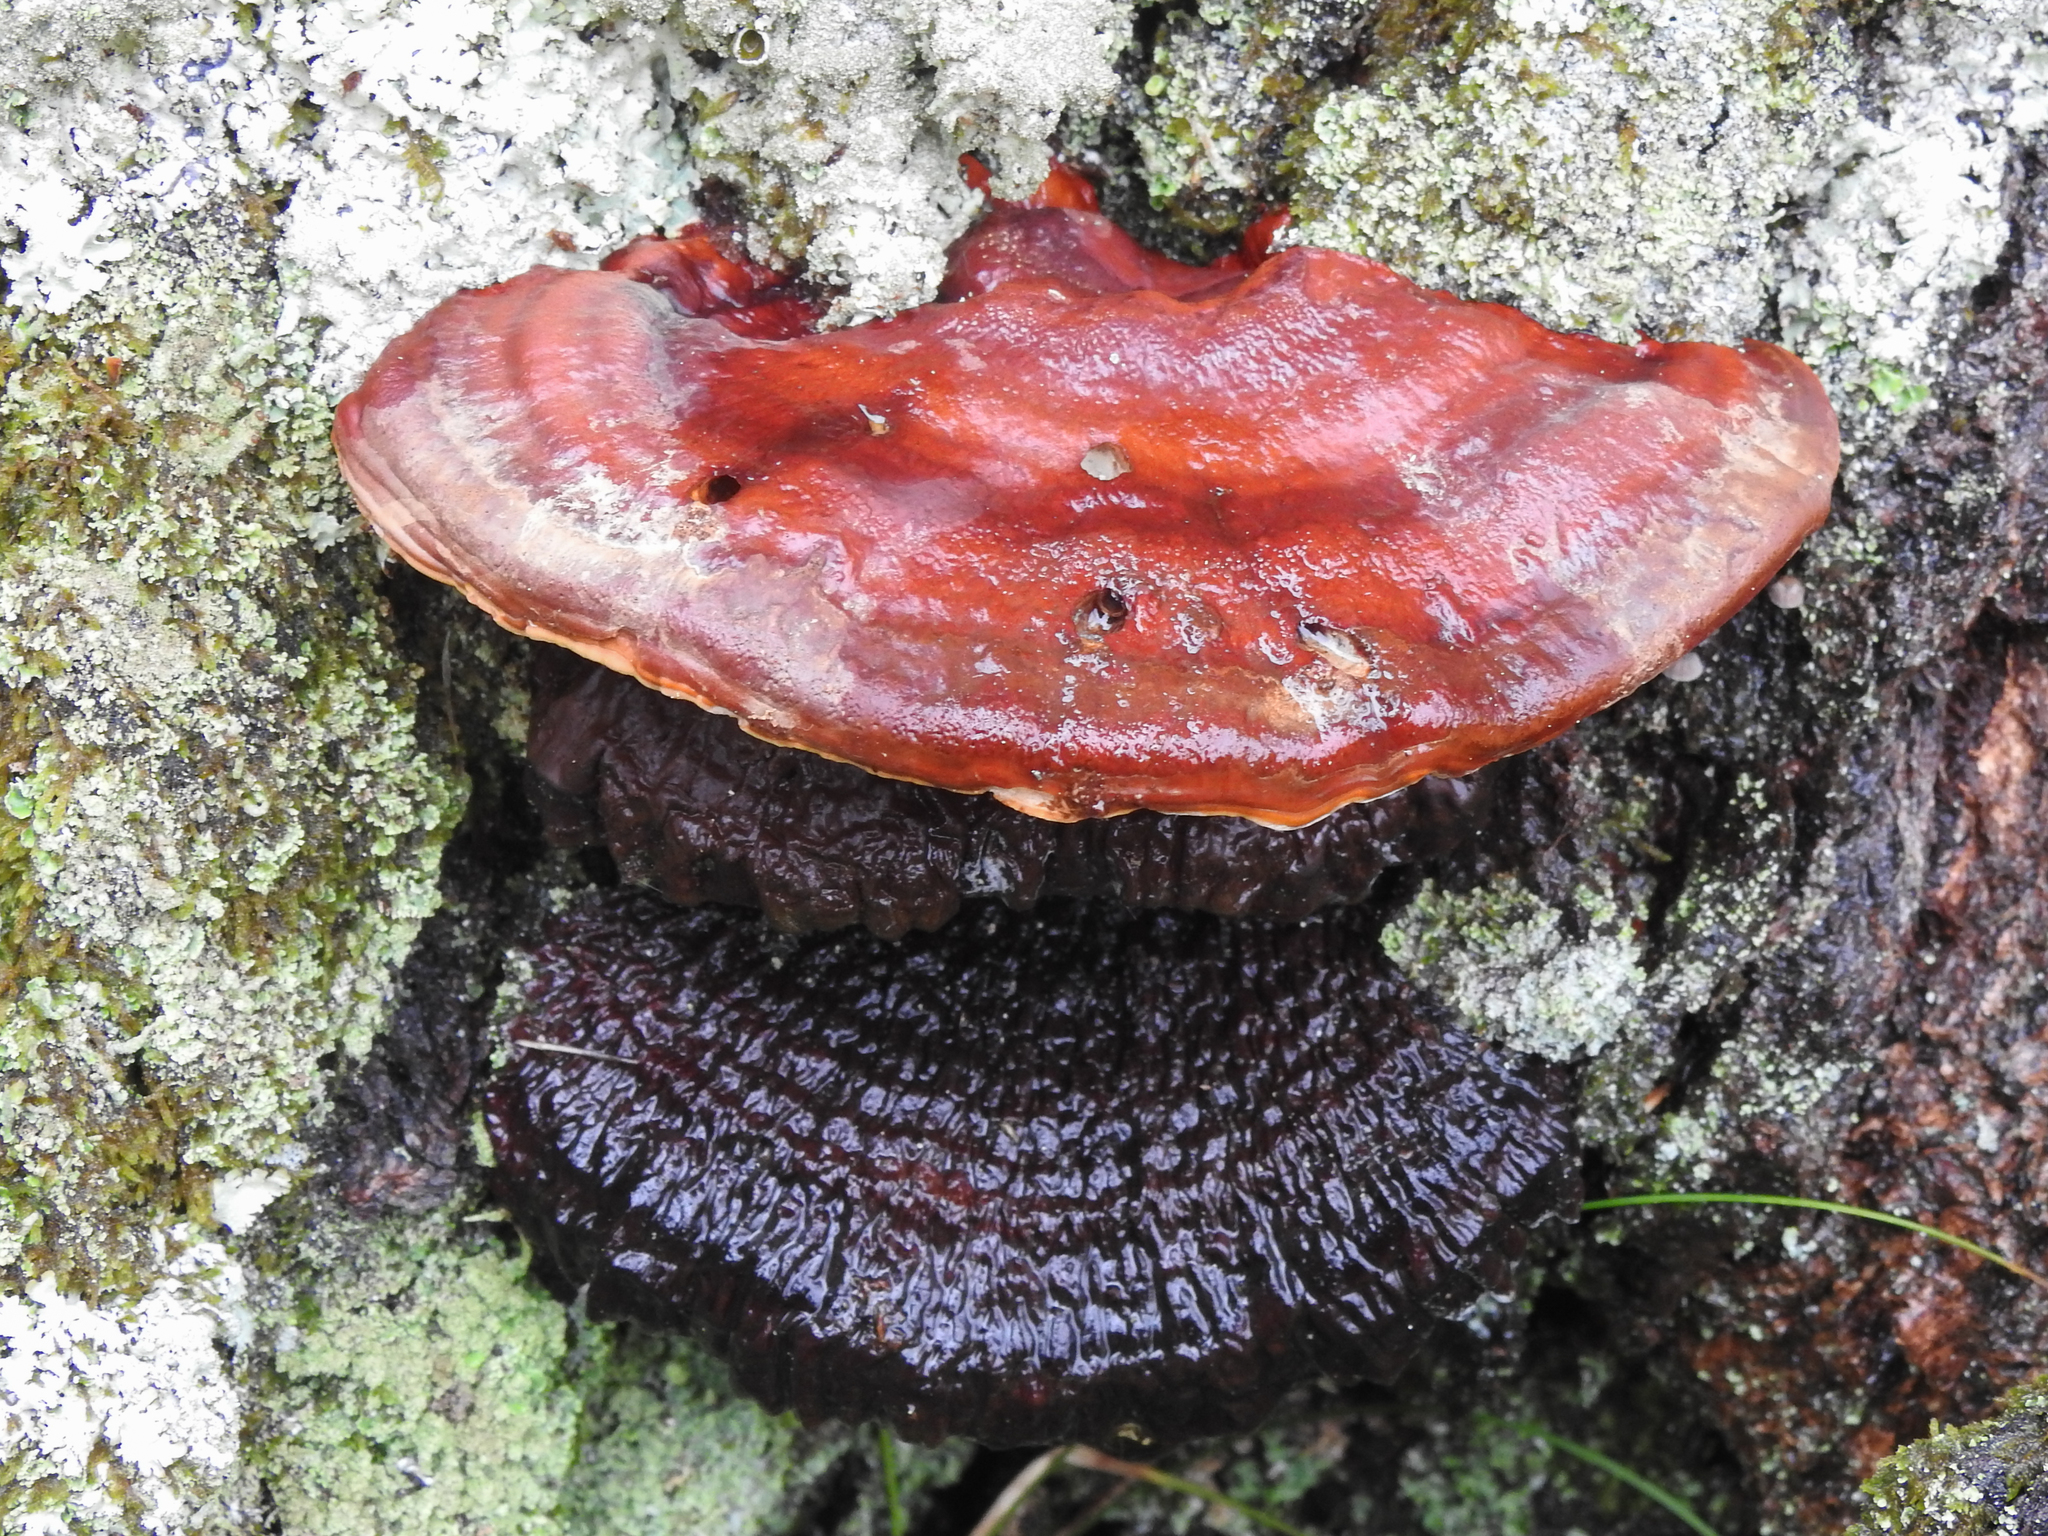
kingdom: Fungi
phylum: Basidiomycota
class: Agaricomycetes
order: Agaricales
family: Fistulinaceae
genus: Fistulina
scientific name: Fistulina hepatica
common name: Beef-steak fungus
